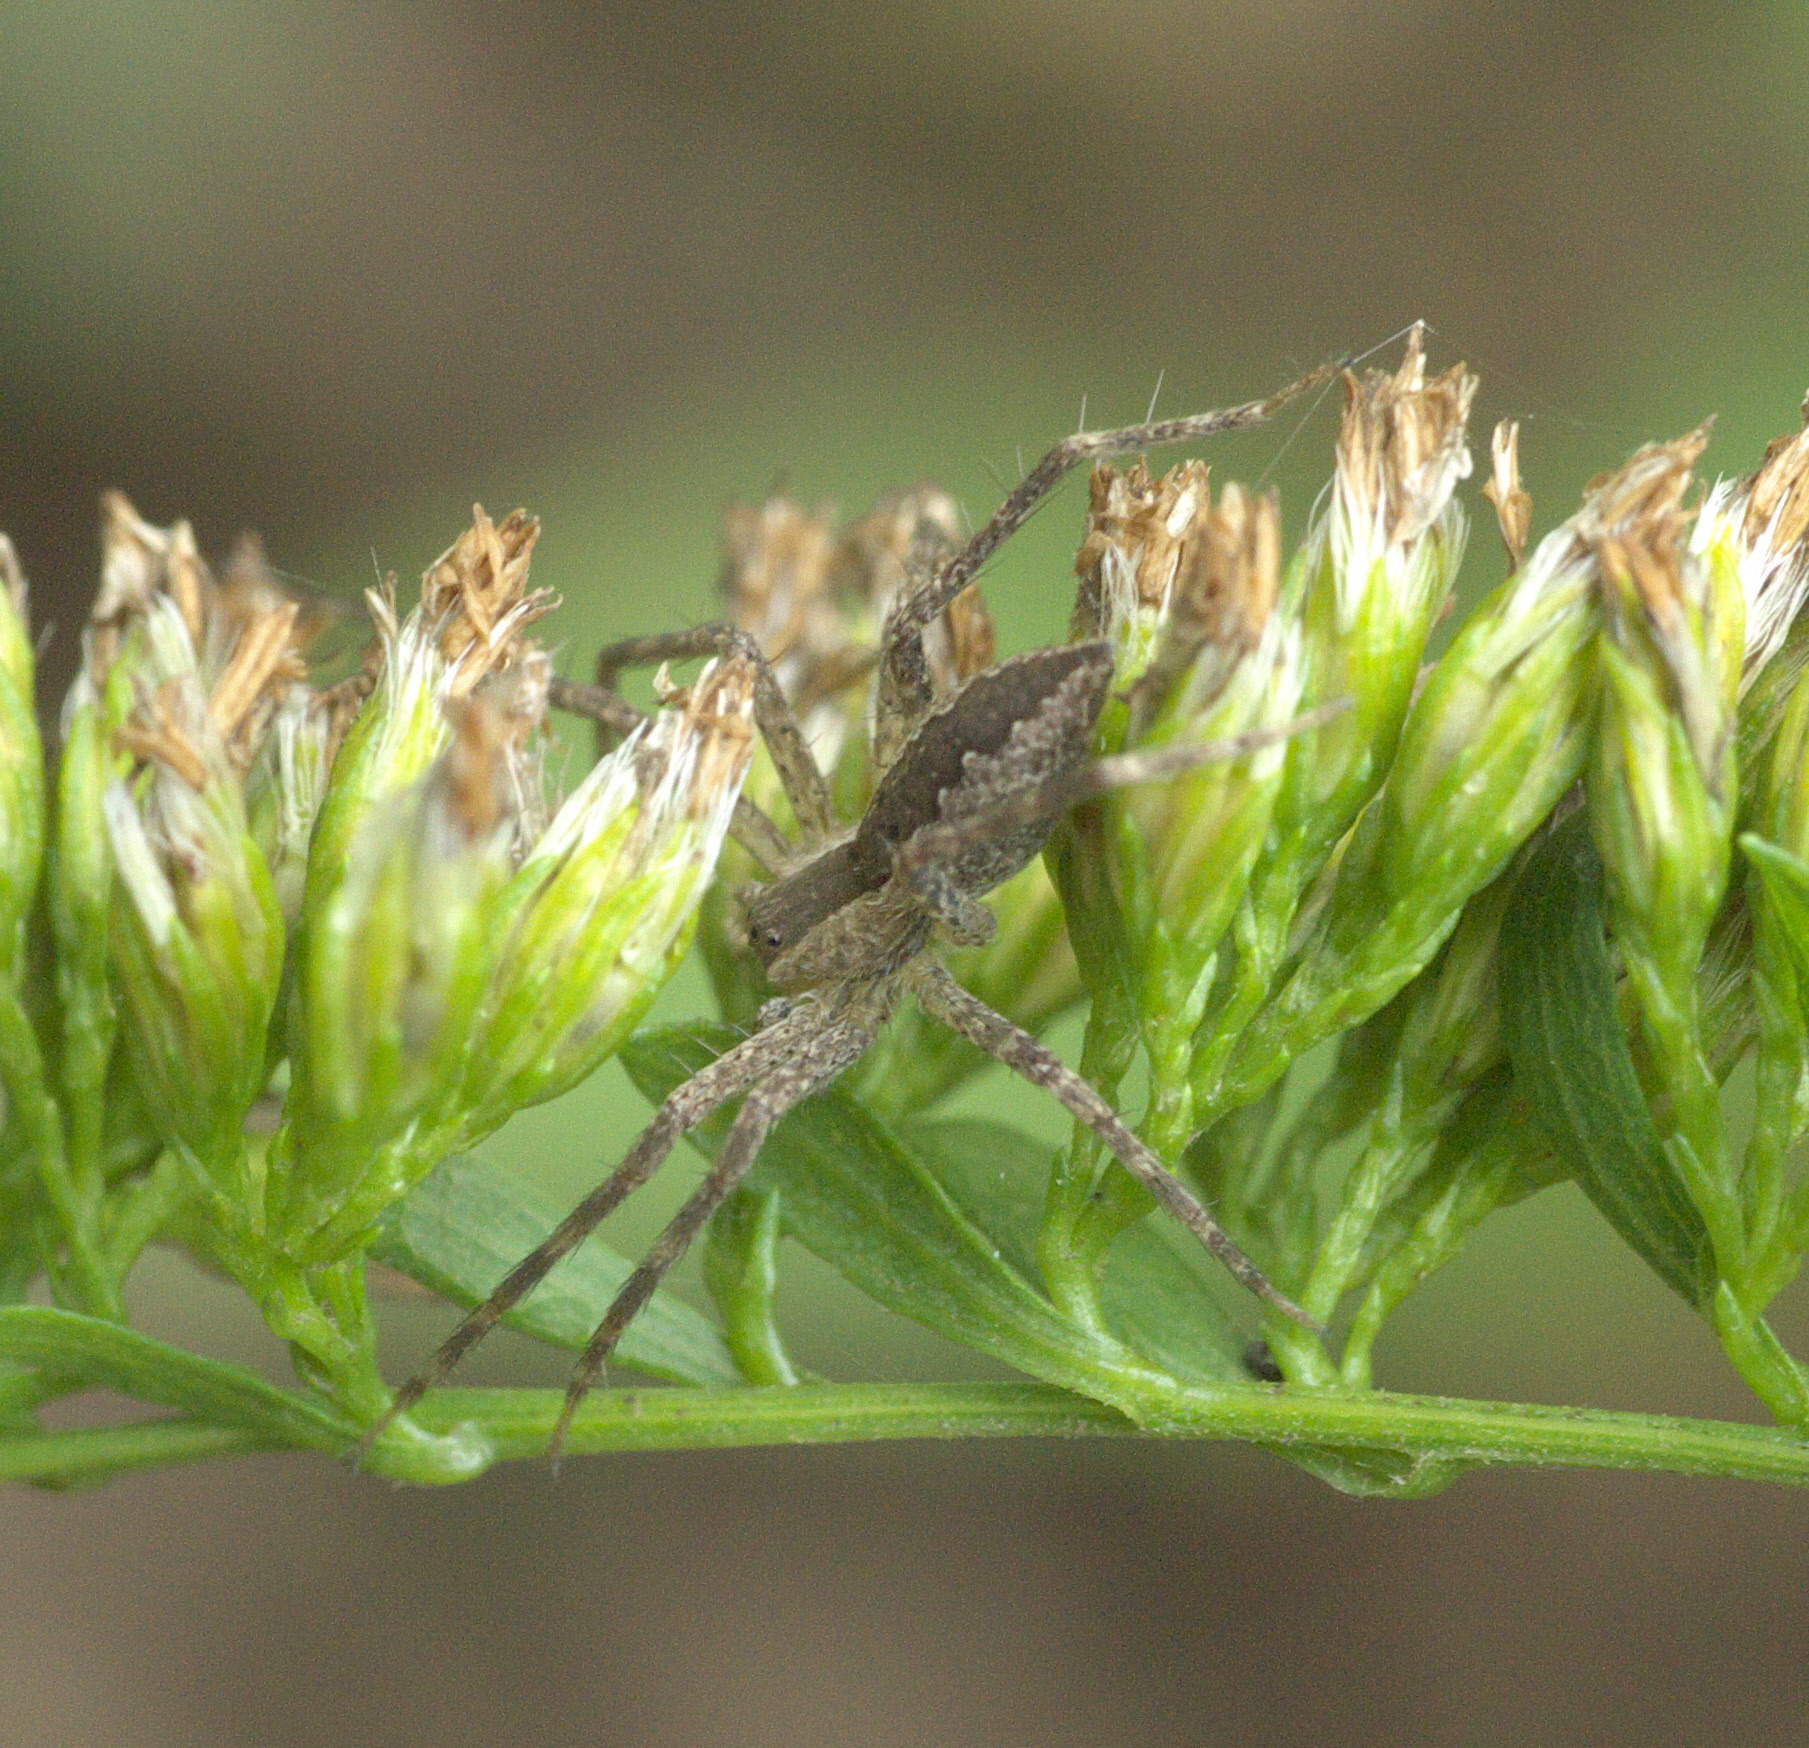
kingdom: Animalia
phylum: Arthropoda
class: Arachnida
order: Araneae
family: Pisauridae
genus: Pisaurina
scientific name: Pisaurina mira
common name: American nursery web spider
